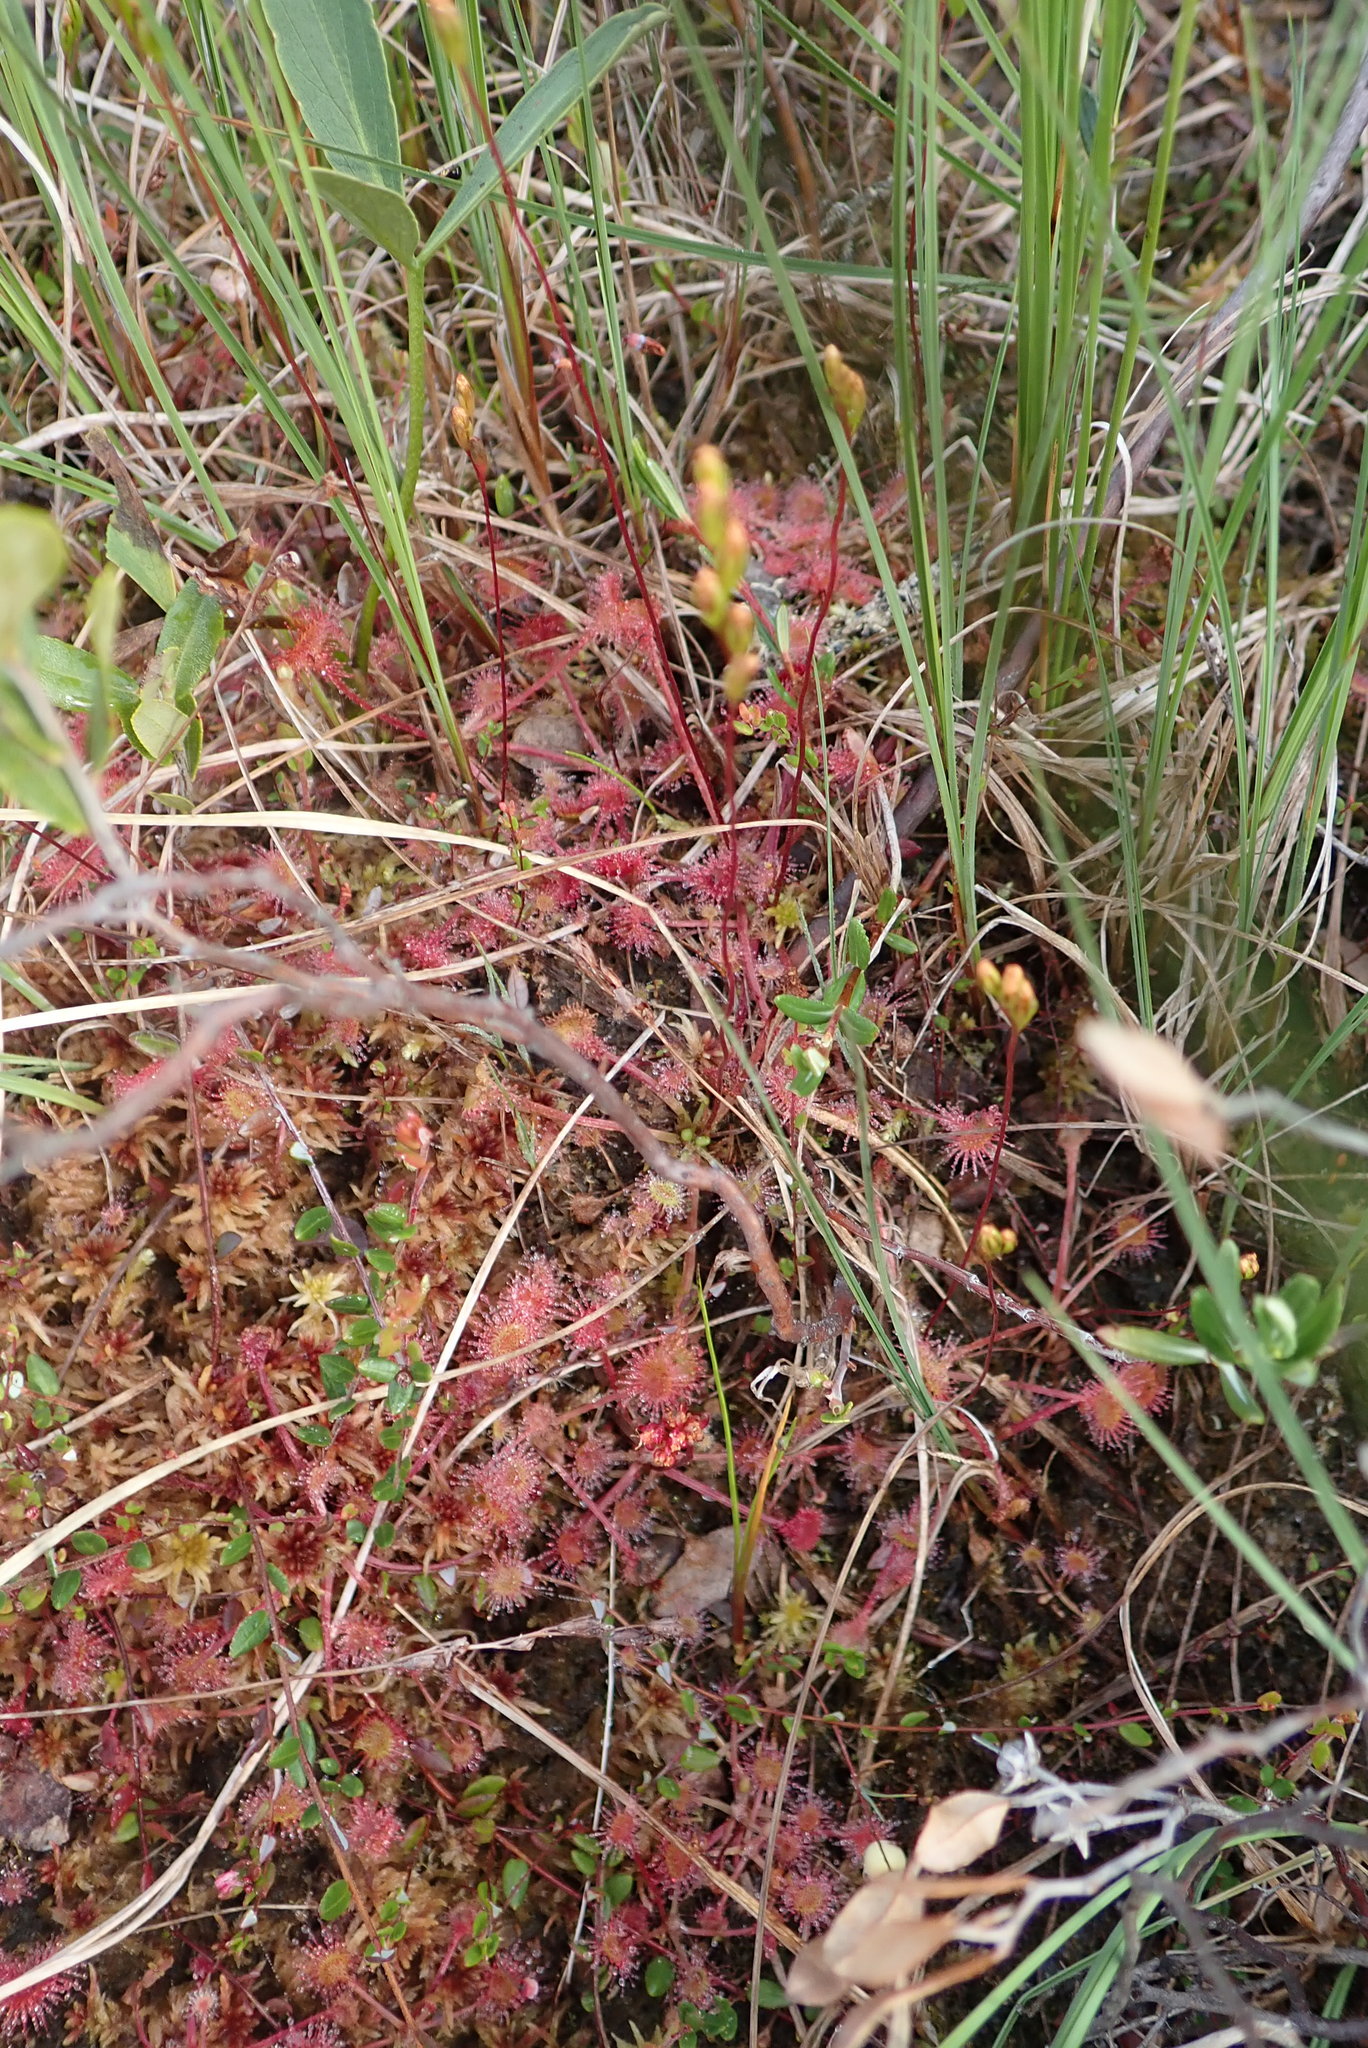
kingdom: Plantae
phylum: Tracheophyta
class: Magnoliopsida
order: Caryophyllales
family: Droseraceae
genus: Drosera
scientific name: Drosera rotundifolia
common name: Round-leaved sundew
